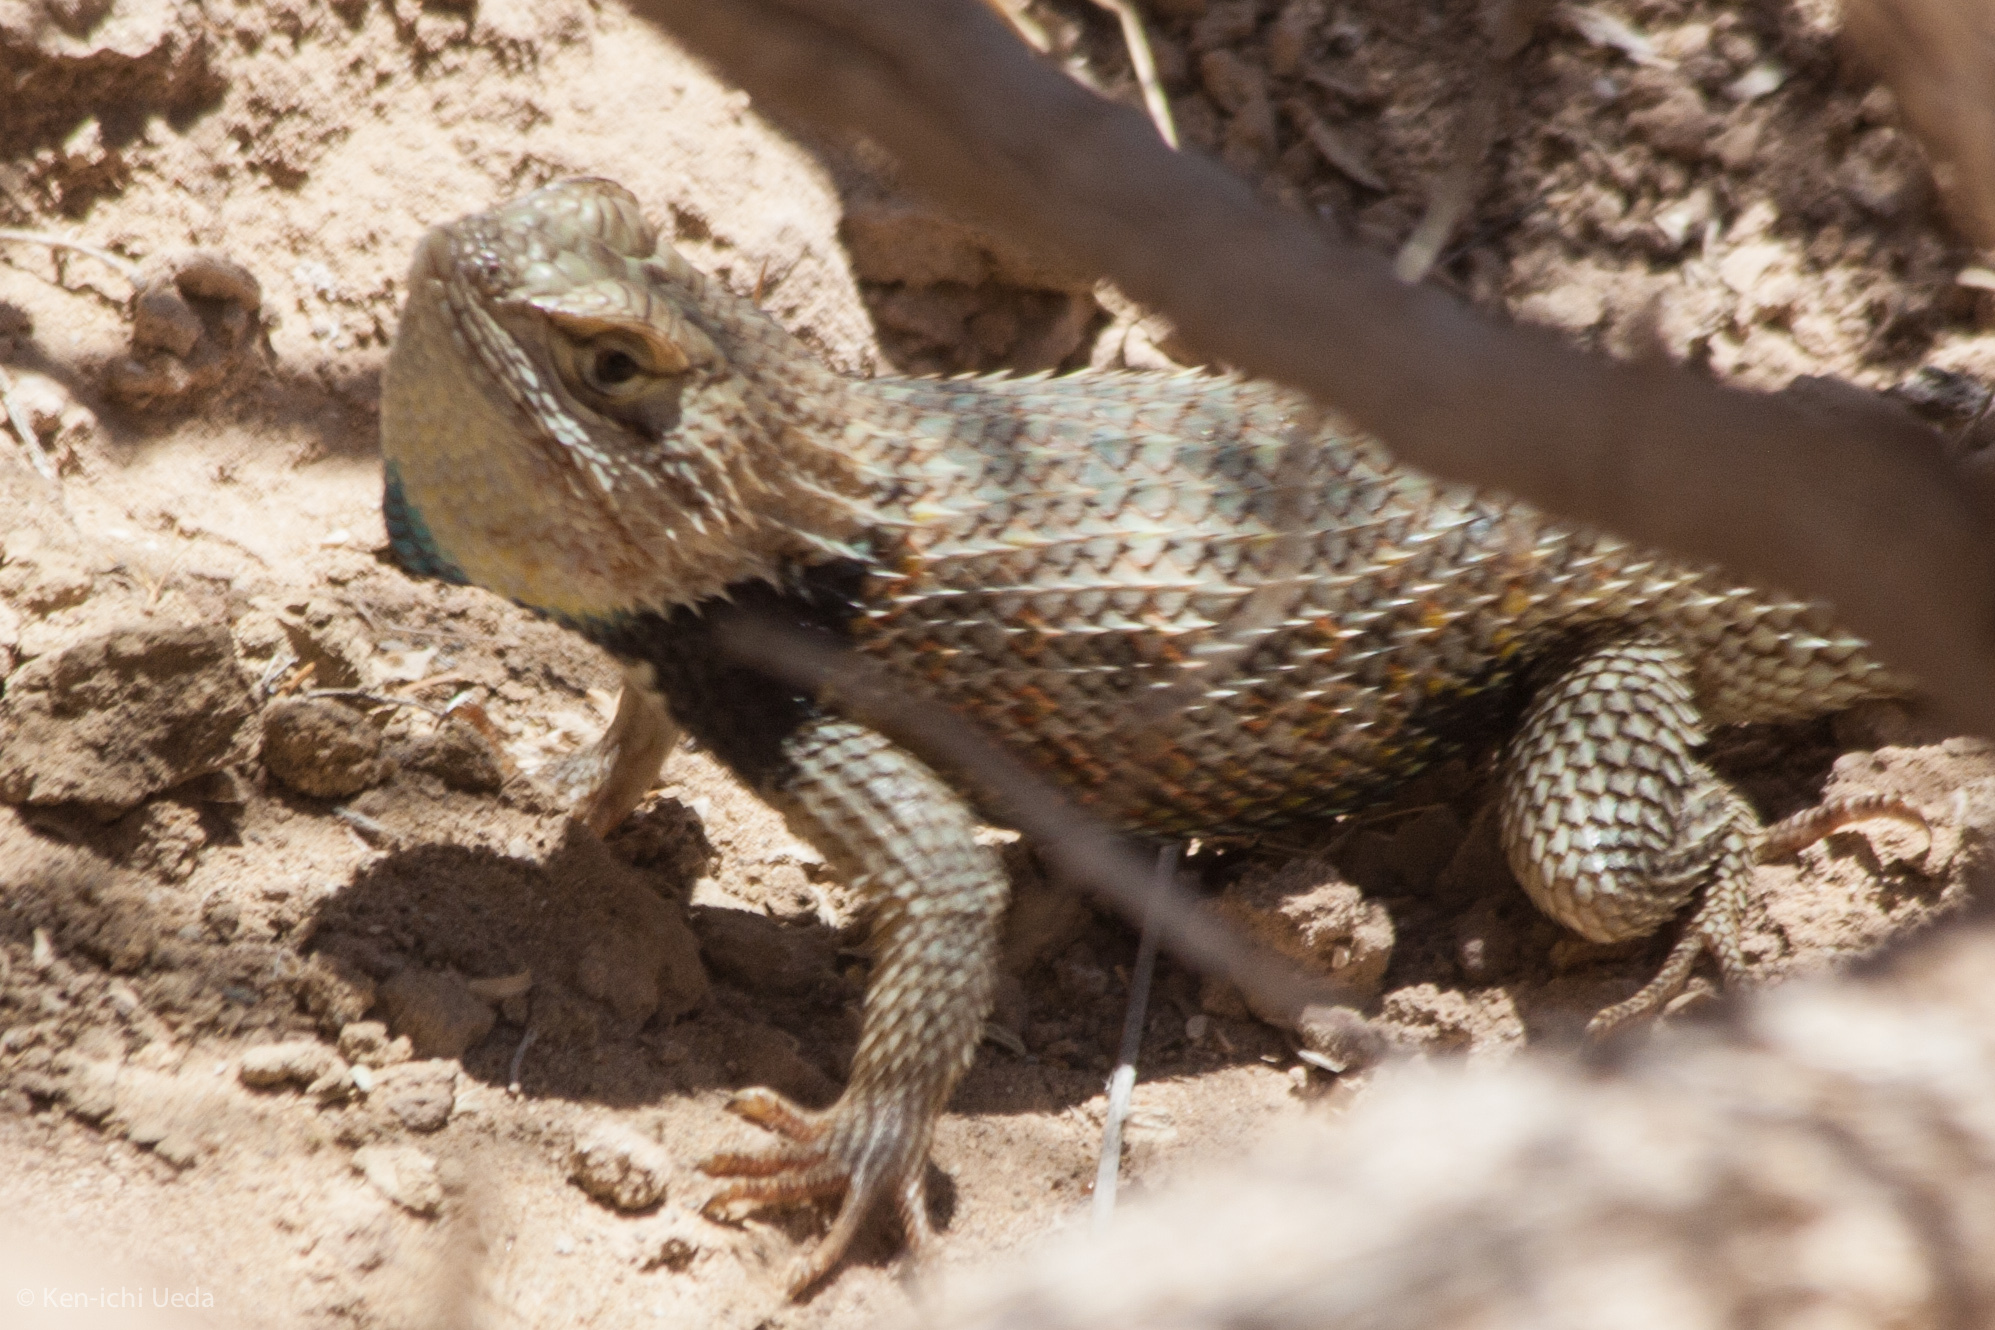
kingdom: Animalia
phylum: Chordata
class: Squamata
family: Phrynosomatidae
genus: Sceloporus
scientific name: Sceloporus uniformis
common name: Yellow-backed spiny lizard
